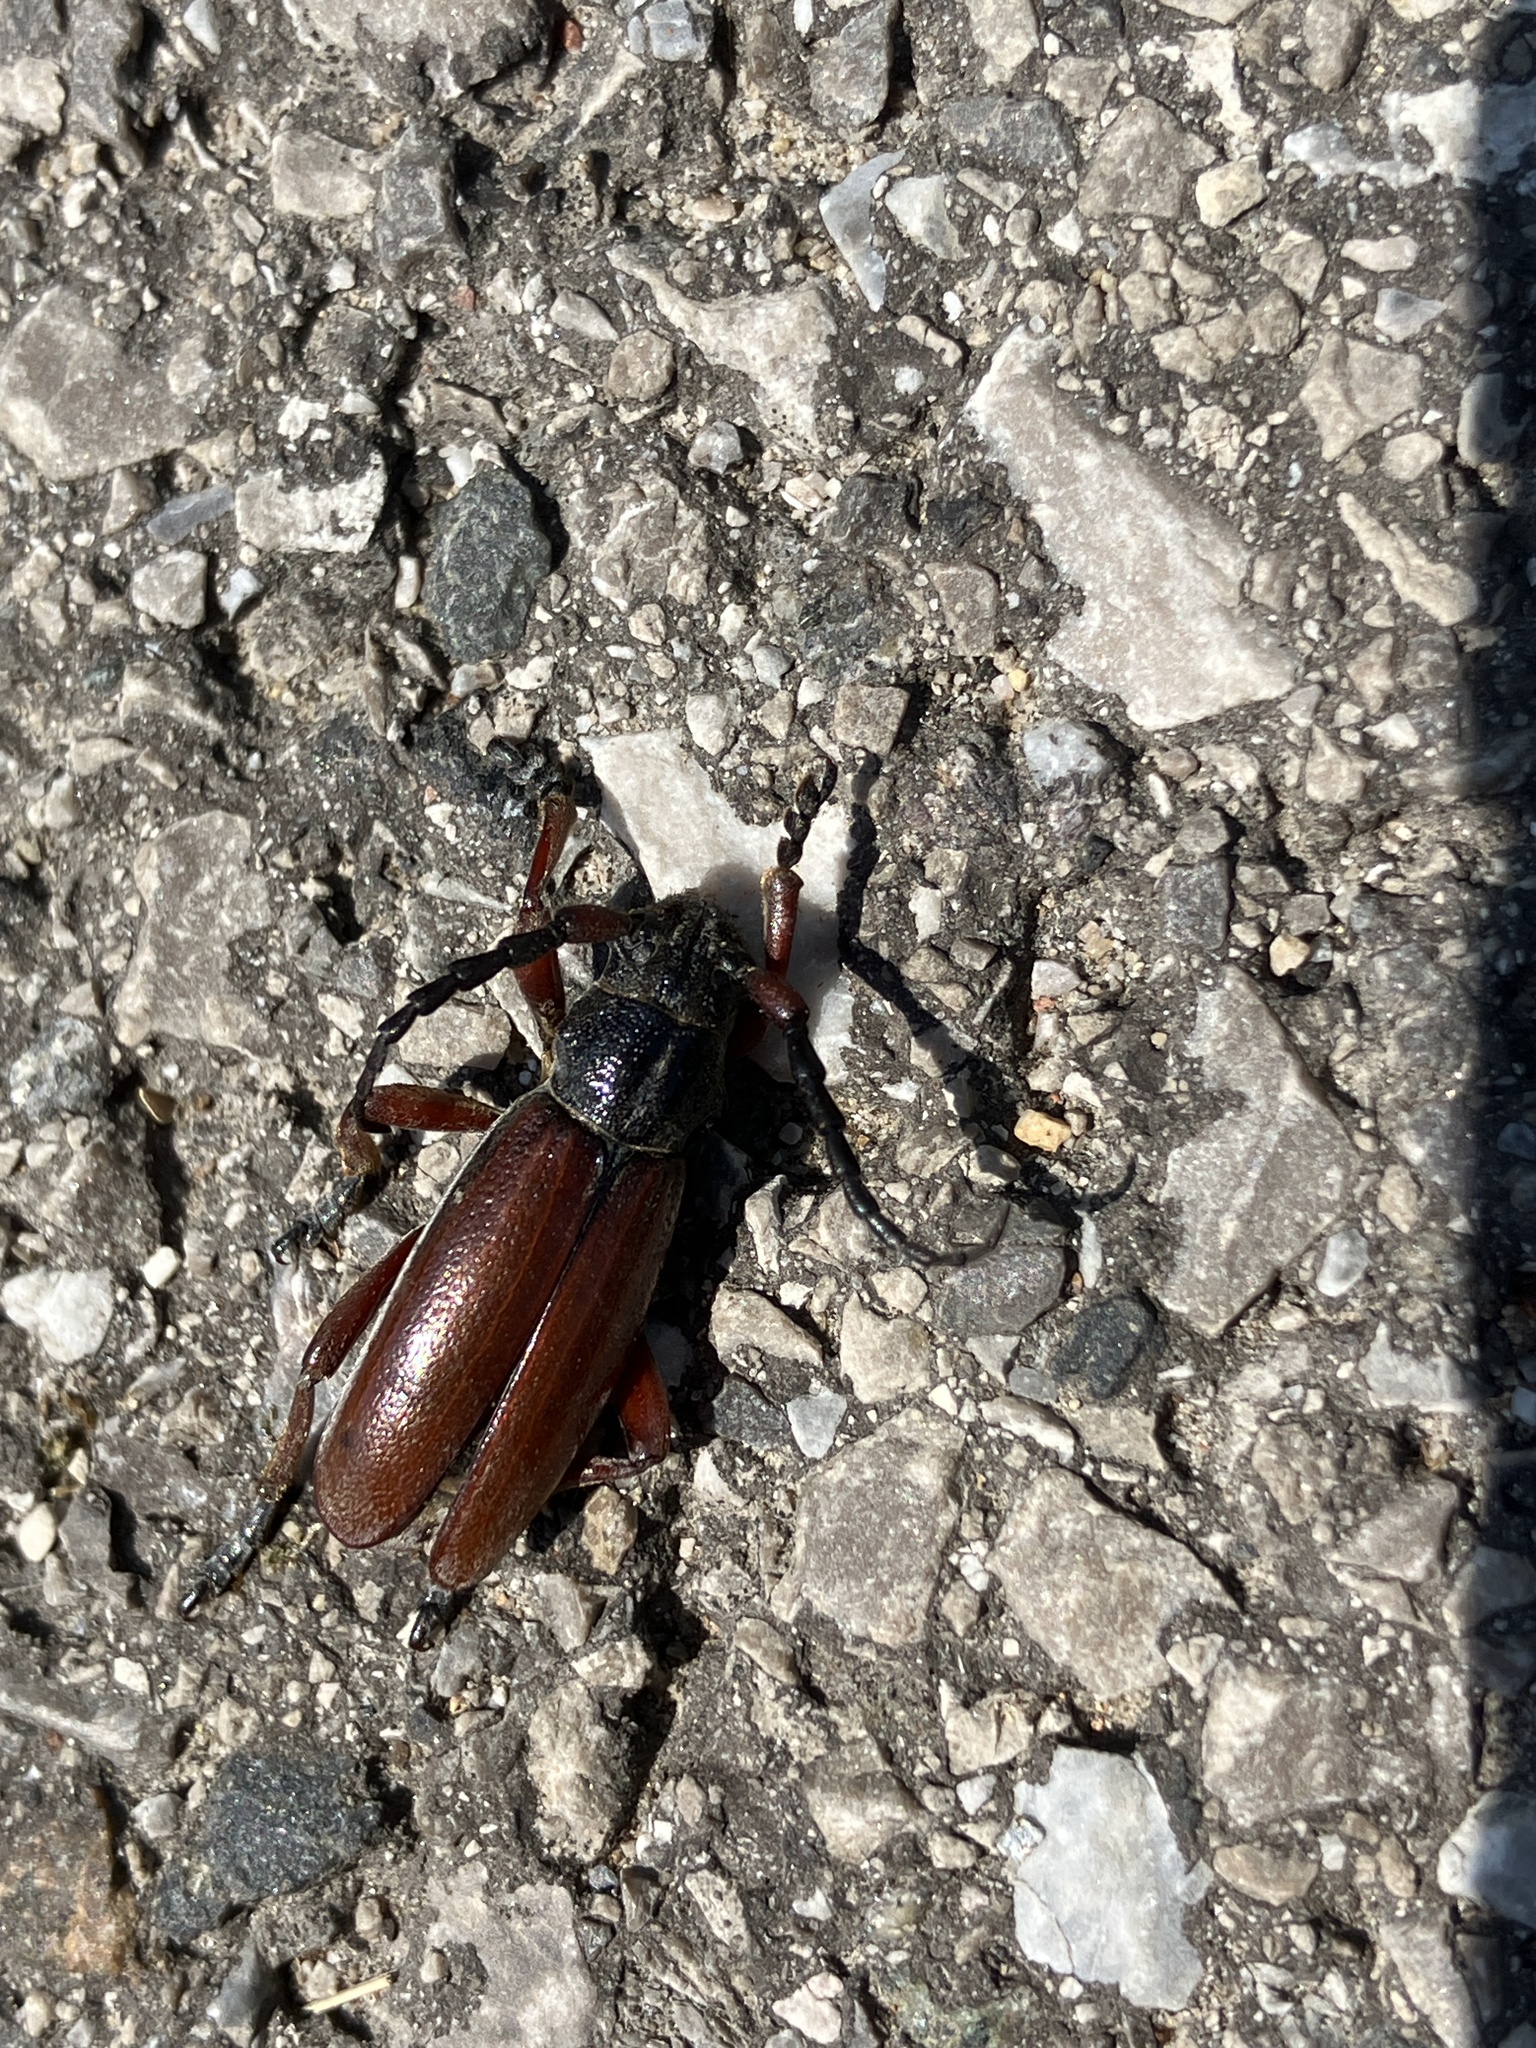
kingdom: Animalia
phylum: Arthropoda
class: Insecta
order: Coleoptera
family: Cerambycidae
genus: Dorcadion
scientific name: Dorcadion fulvum
